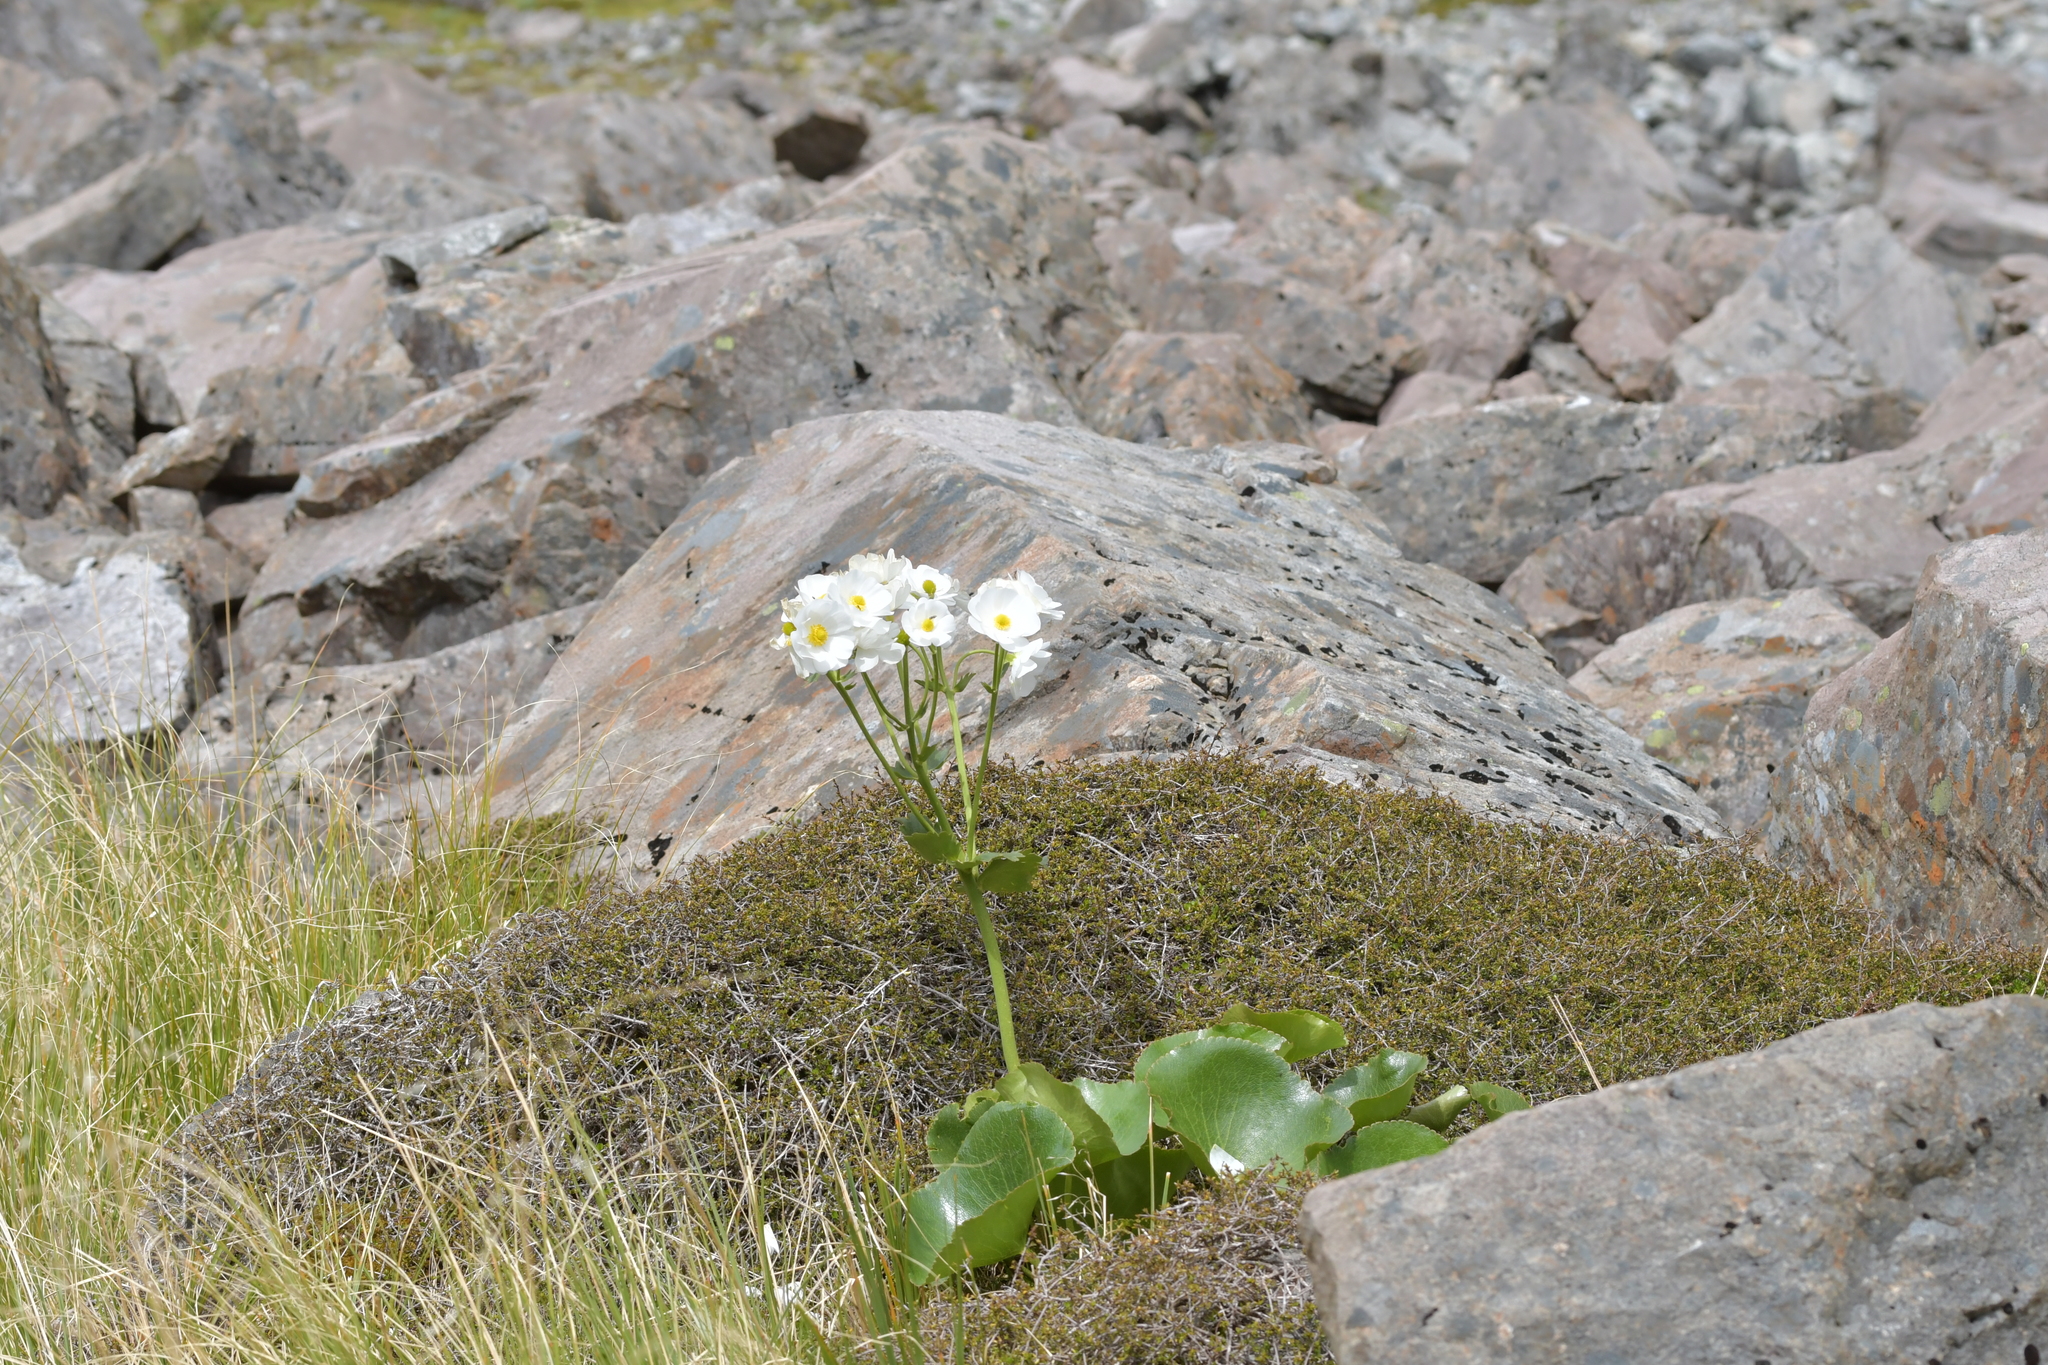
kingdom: Plantae
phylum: Tracheophyta
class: Magnoliopsida
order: Ranunculales
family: Ranunculaceae
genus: Ranunculus
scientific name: Ranunculus lyallii
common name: Mountain-lily
